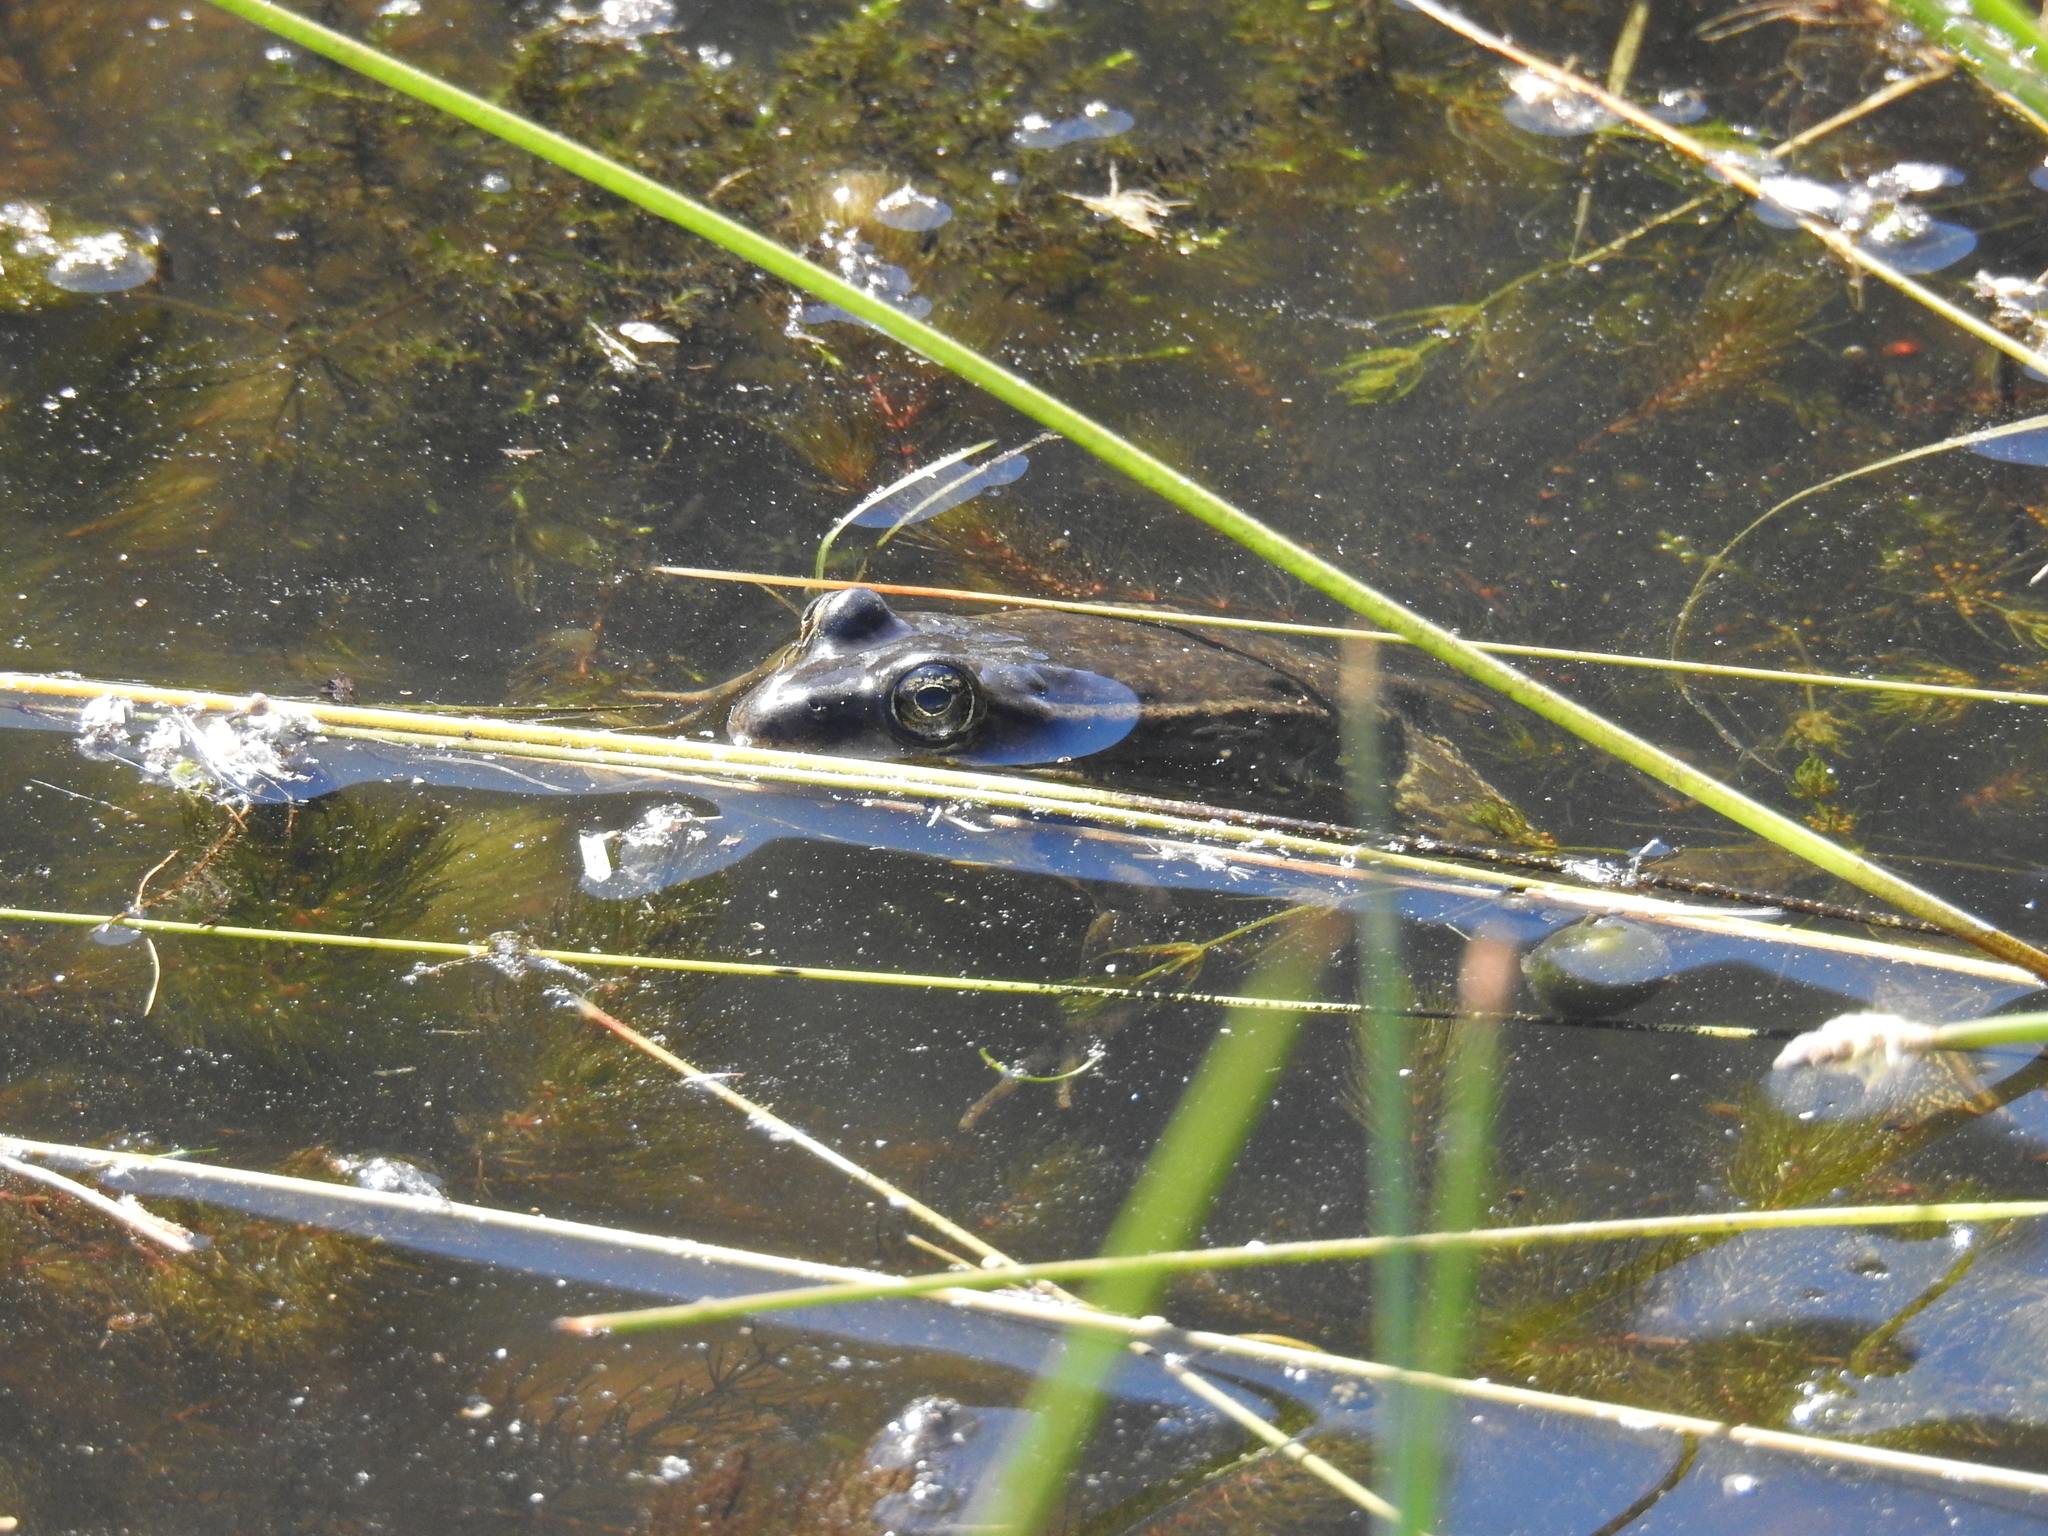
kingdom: Animalia
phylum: Chordata
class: Amphibia
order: Anura
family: Ranidae
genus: Rana
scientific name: Rana draytonii
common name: California red-legged frog
